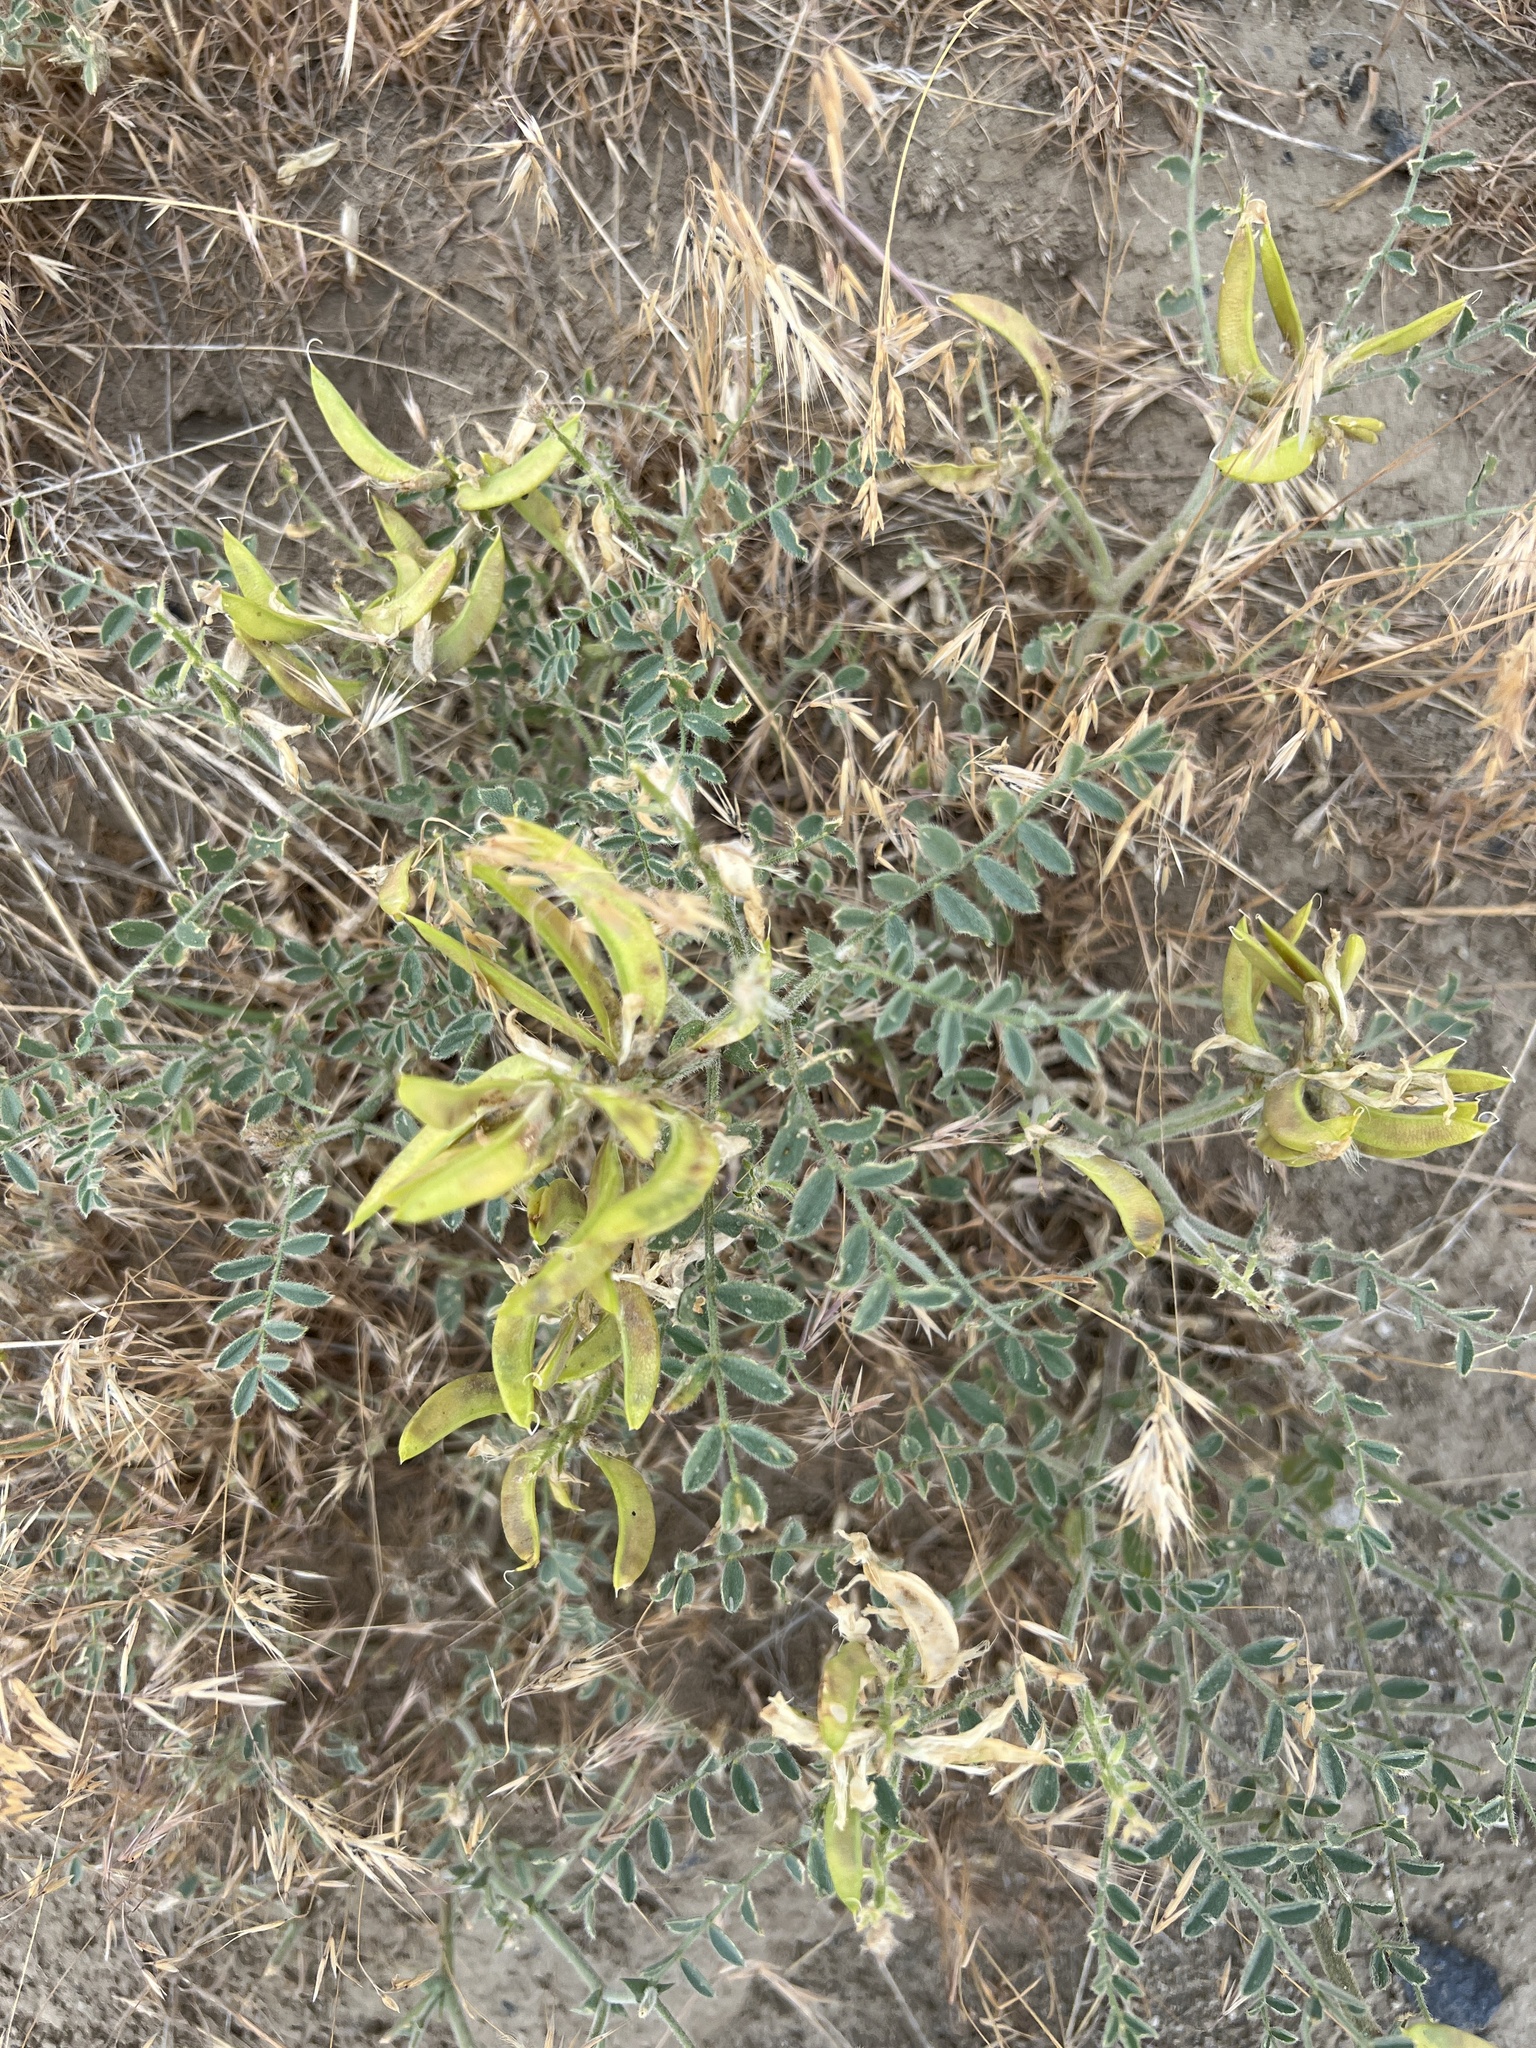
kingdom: Plantae
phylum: Tracheophyta
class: Magnoliopsida
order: Fabales
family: Fabaceae
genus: Astragalus
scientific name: Astragalus succumbens
